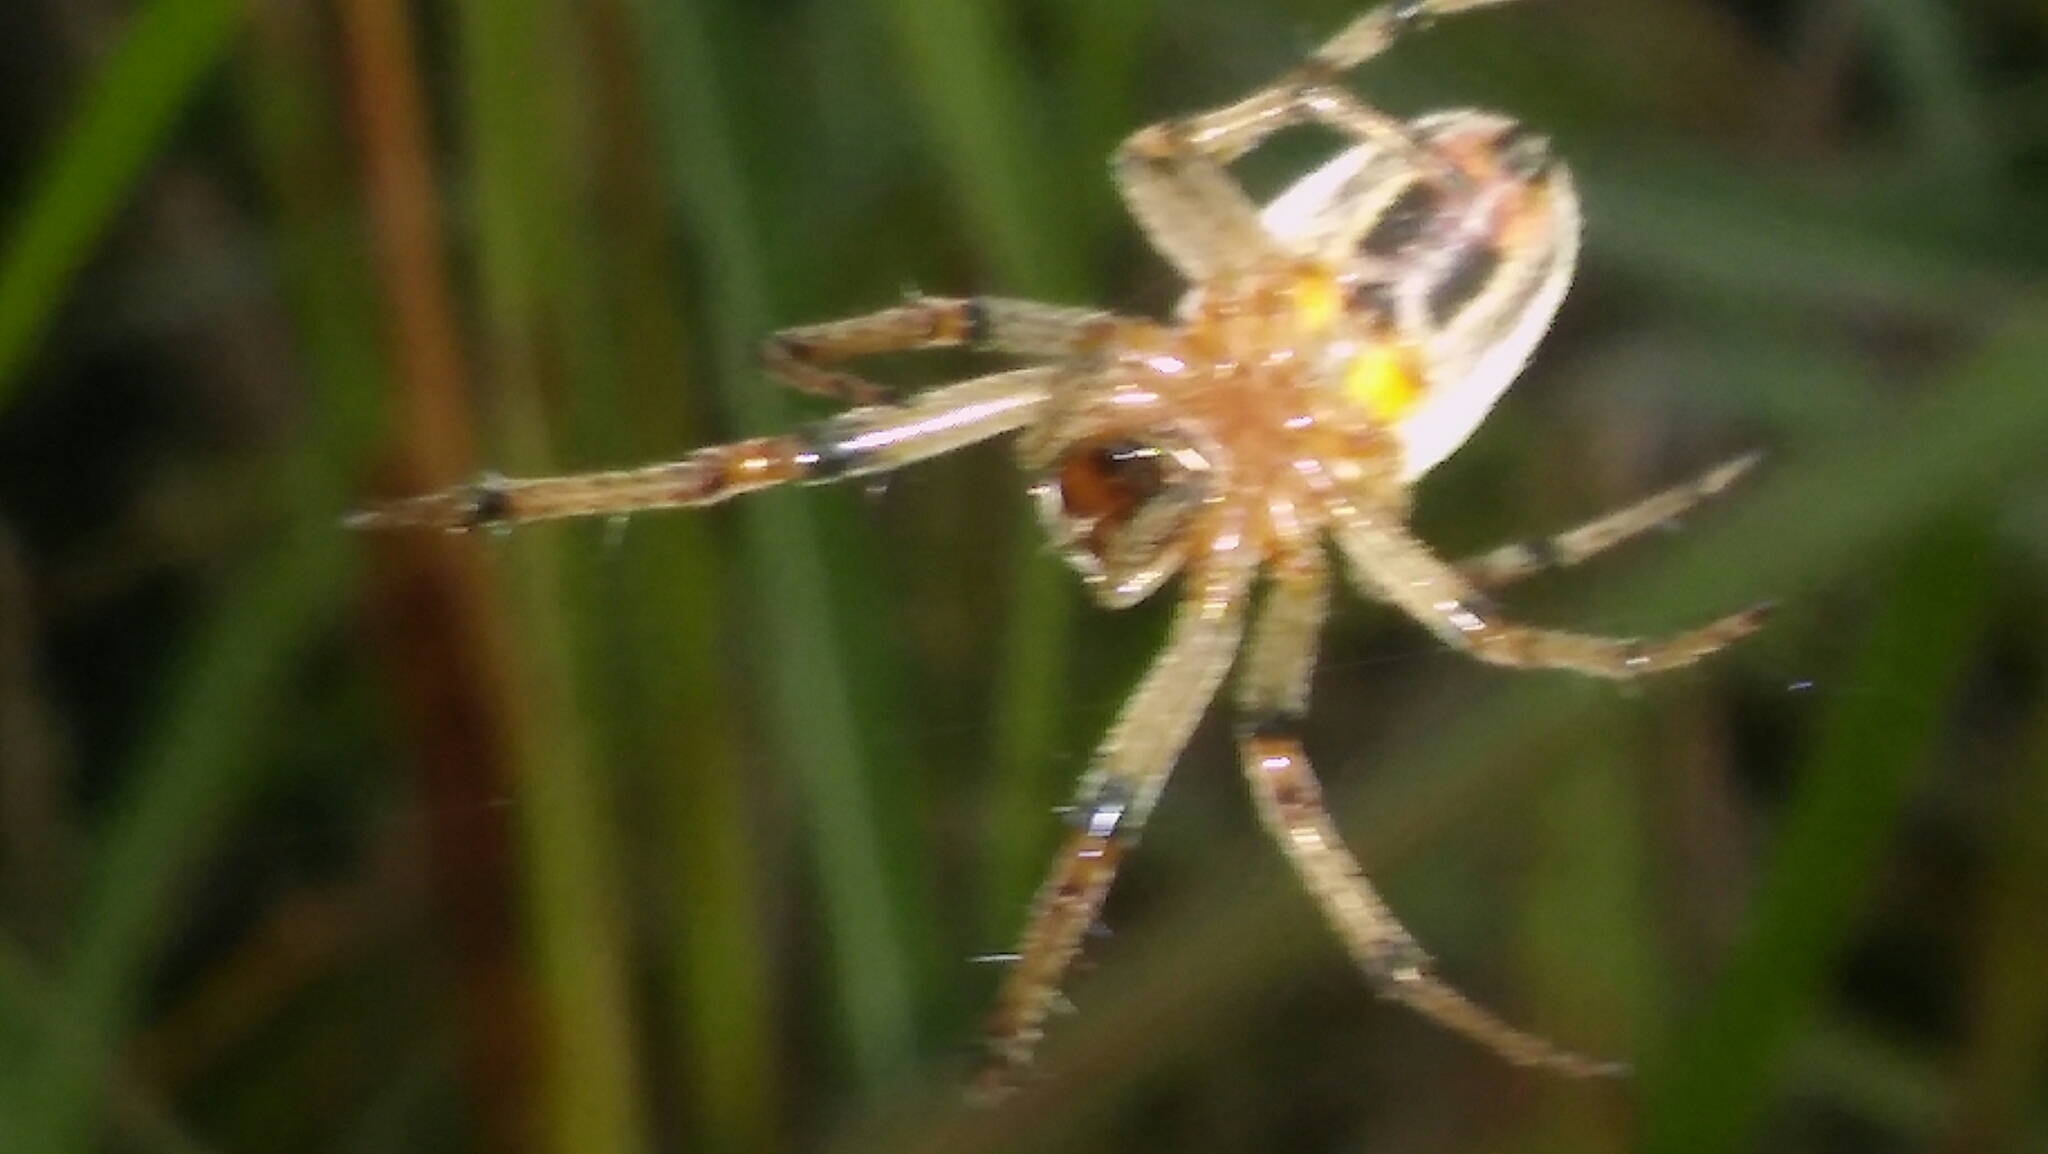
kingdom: Animalia
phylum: Arthropoda
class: Arachnida
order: Araneae
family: Araneidae
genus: Alpaida
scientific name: Alpaida veniliae
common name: Orb weavers
